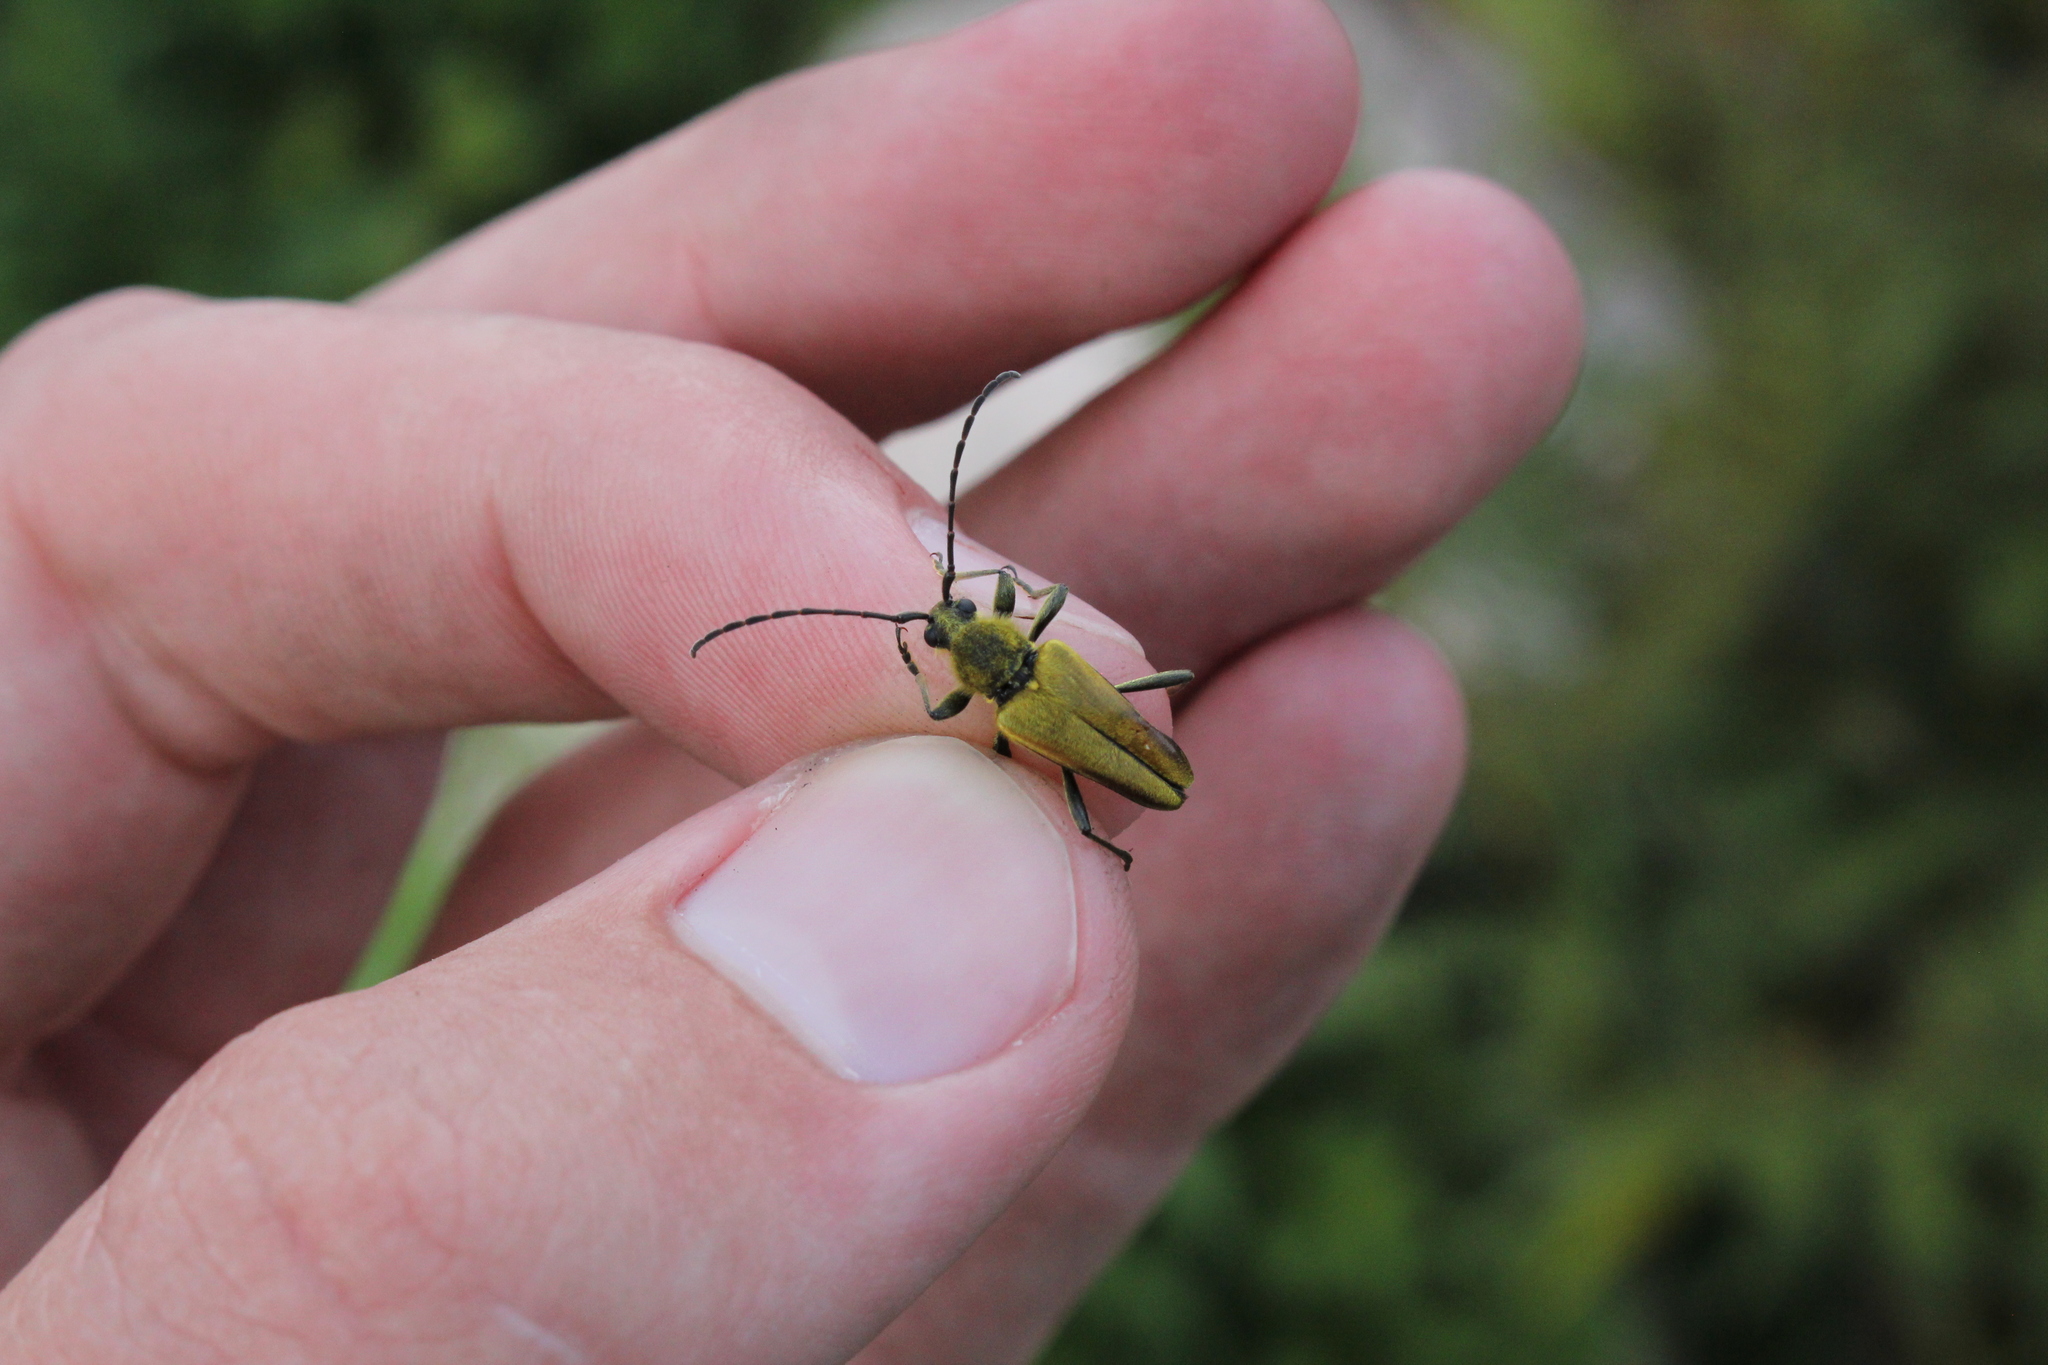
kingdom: Animalia
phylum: Arthropoda
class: Insecta
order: Coleoptera
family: Cerambycidae
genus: Cosmosalia
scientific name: Cosmosalia chrysocoma
